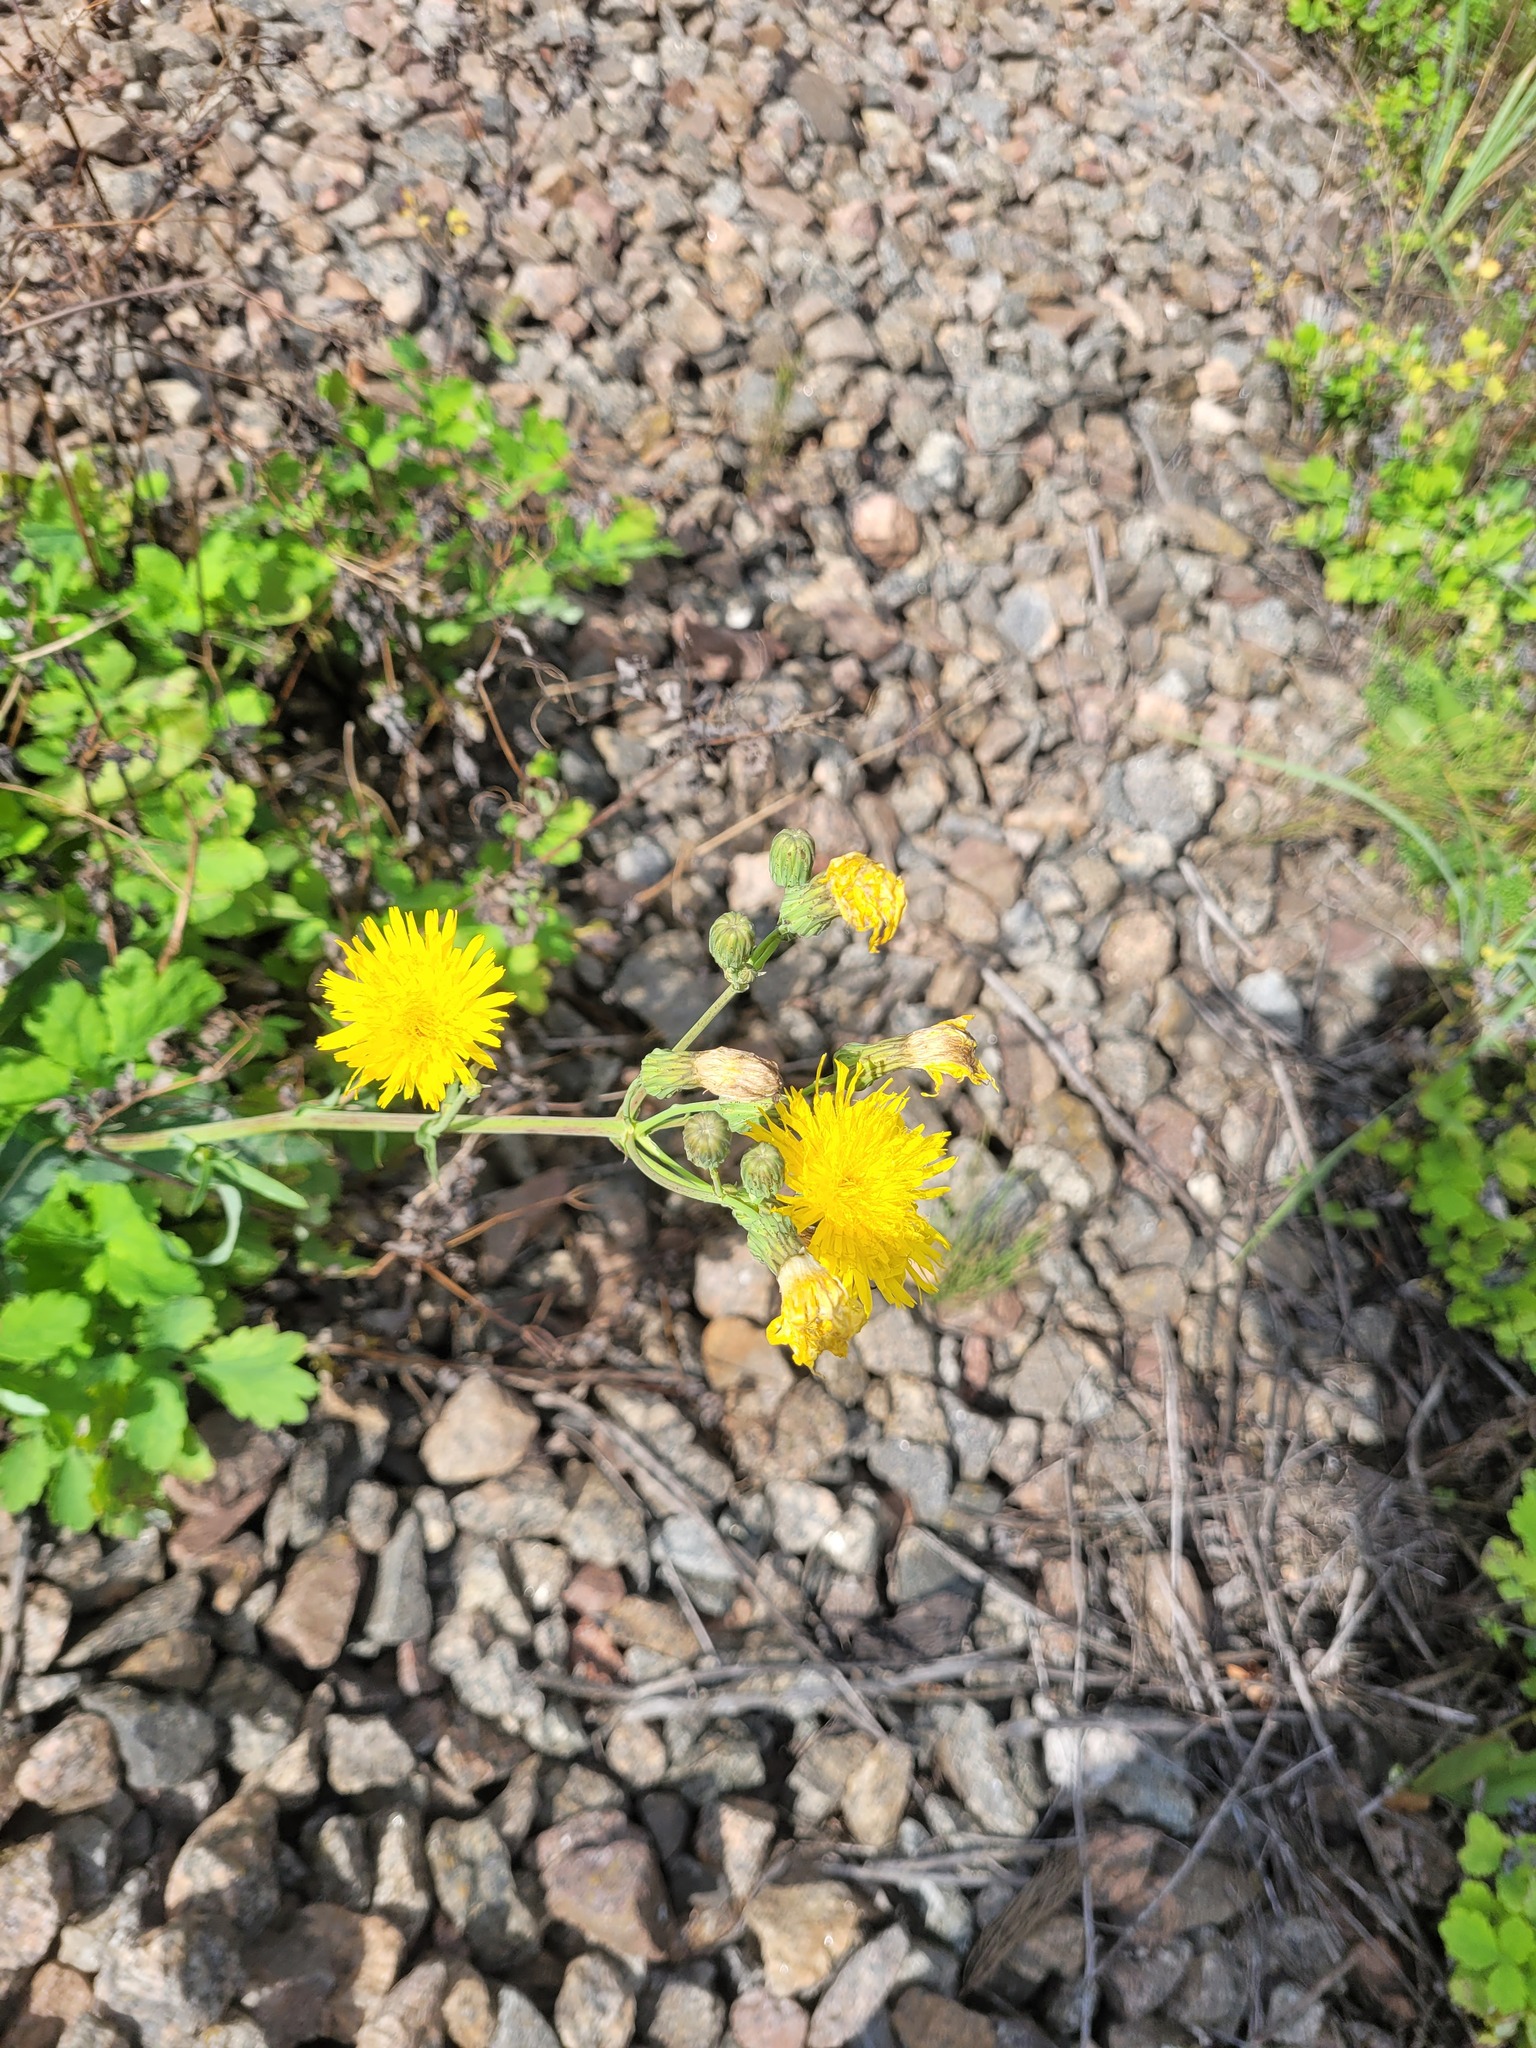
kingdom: Plantae
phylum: Tracheophyta
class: Magnoliopsida
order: Asterales
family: Asteraceae
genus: Sonchus
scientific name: Sonchus arvensis
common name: Perennial sow-thistle
